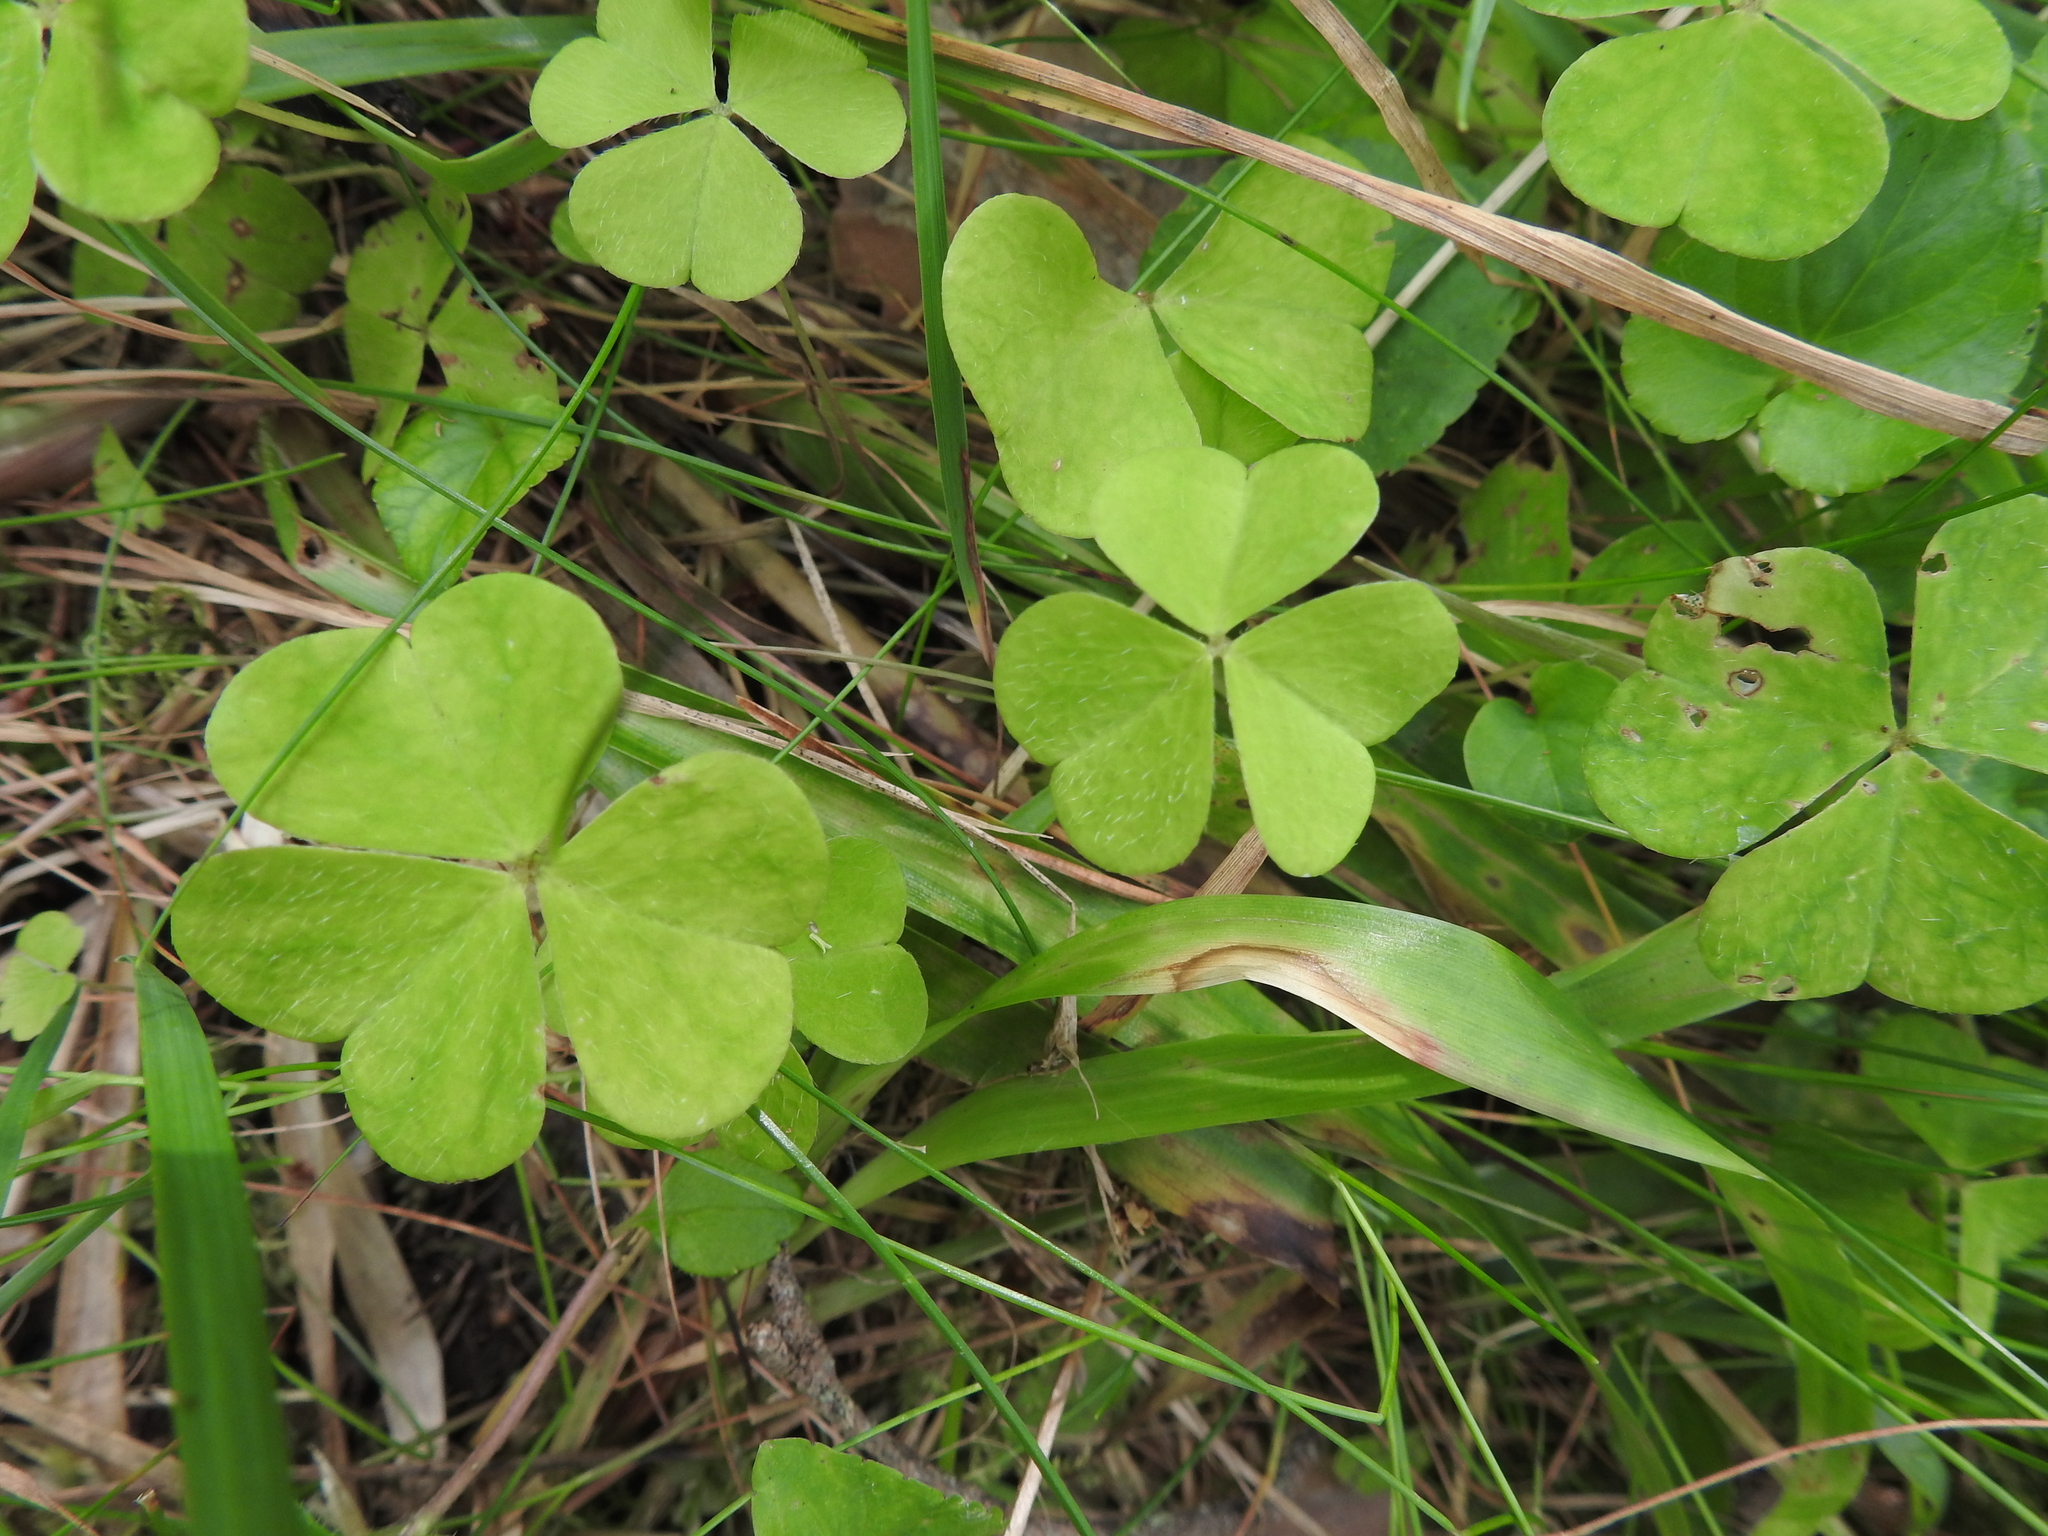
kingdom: Plantae
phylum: Tracheophyta
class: Magnoliopsida
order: Oxalidales
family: Oxalidaceae
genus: Oxalis
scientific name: Oxalis acetosella
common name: Wood-sorrel
